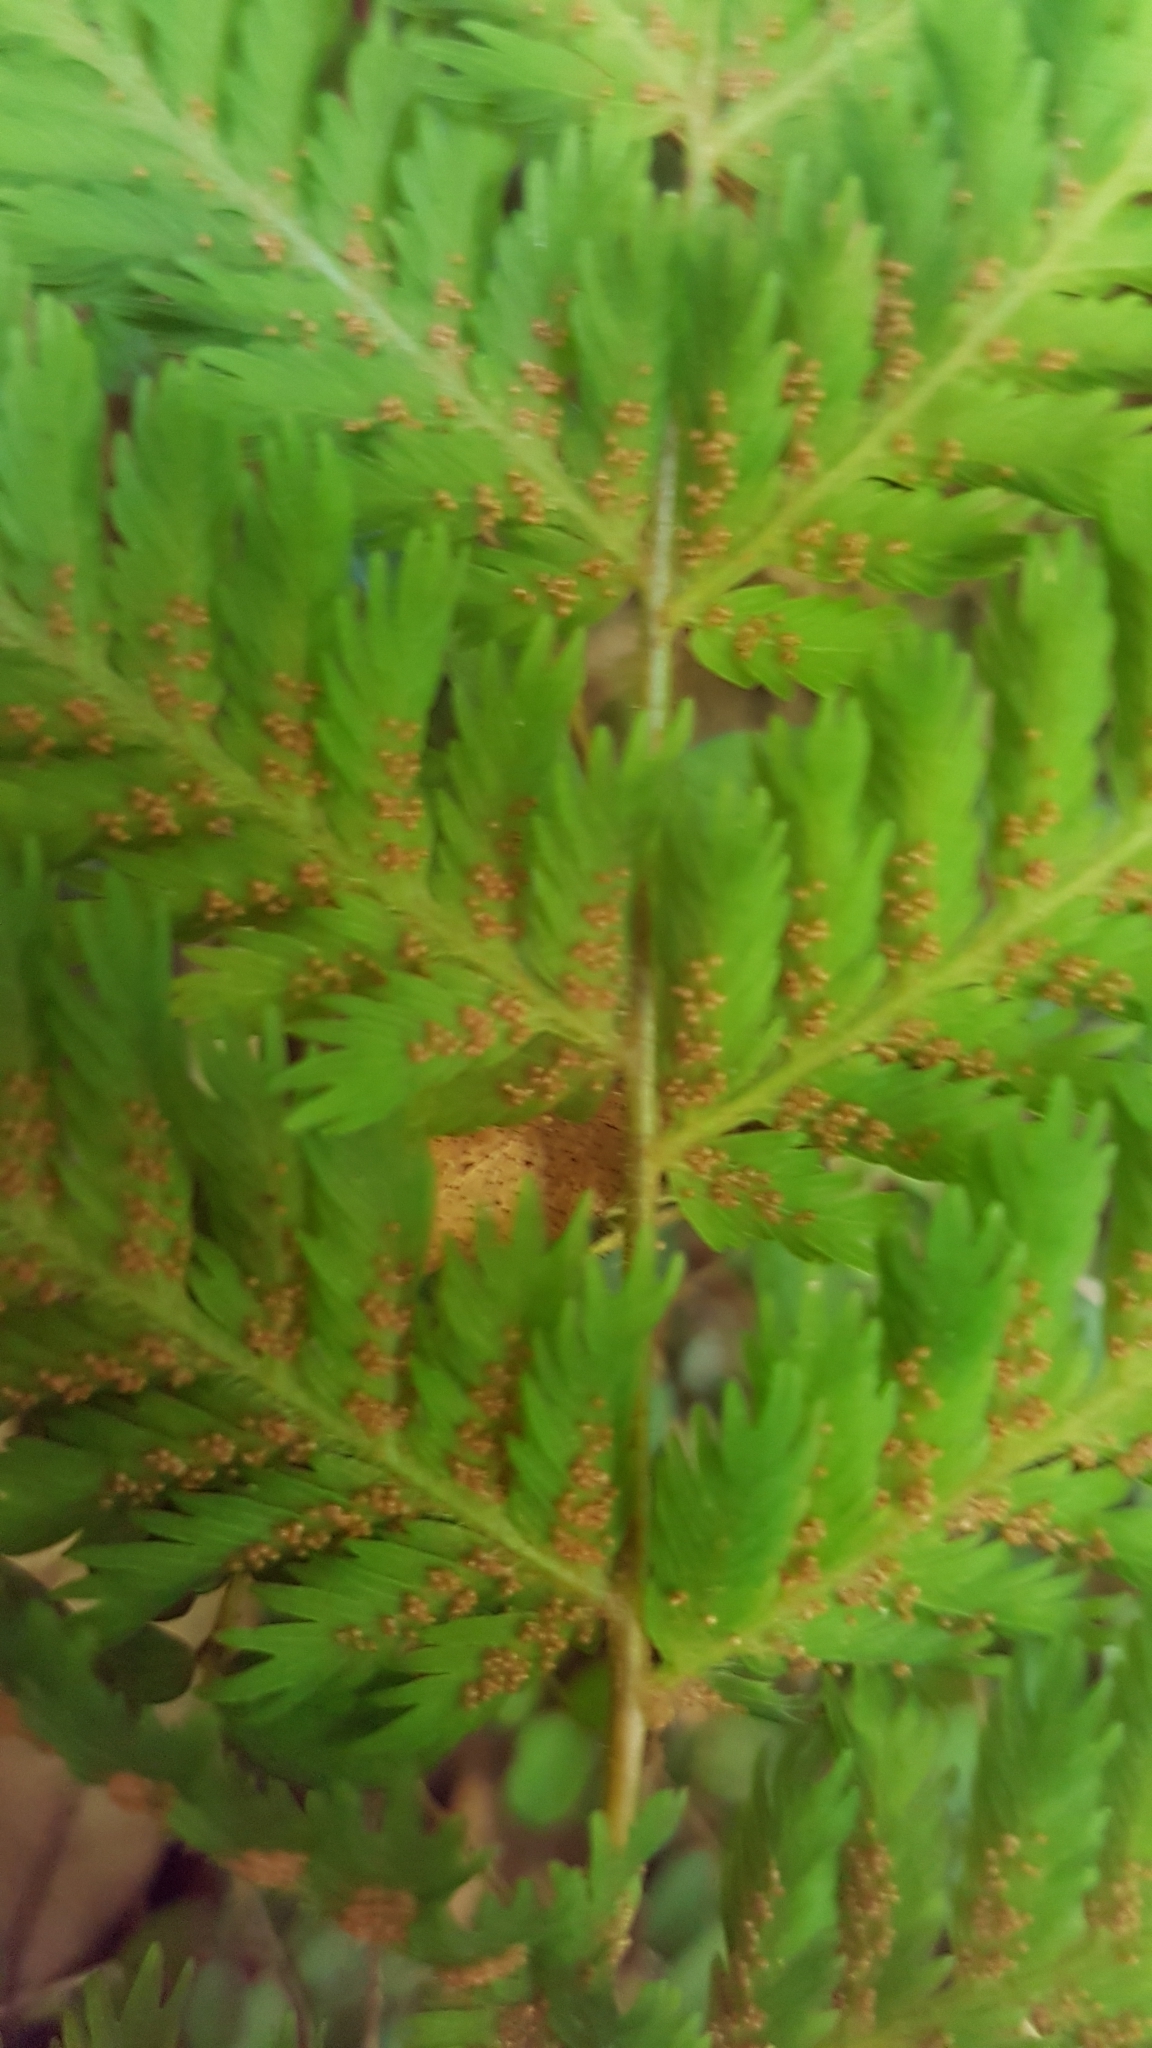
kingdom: Plantae
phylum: Tracheophyta
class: Polypodiopsida
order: Osmundales
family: Osmundaceae
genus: Leptopteris
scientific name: Leptopteris hymenophylloides
